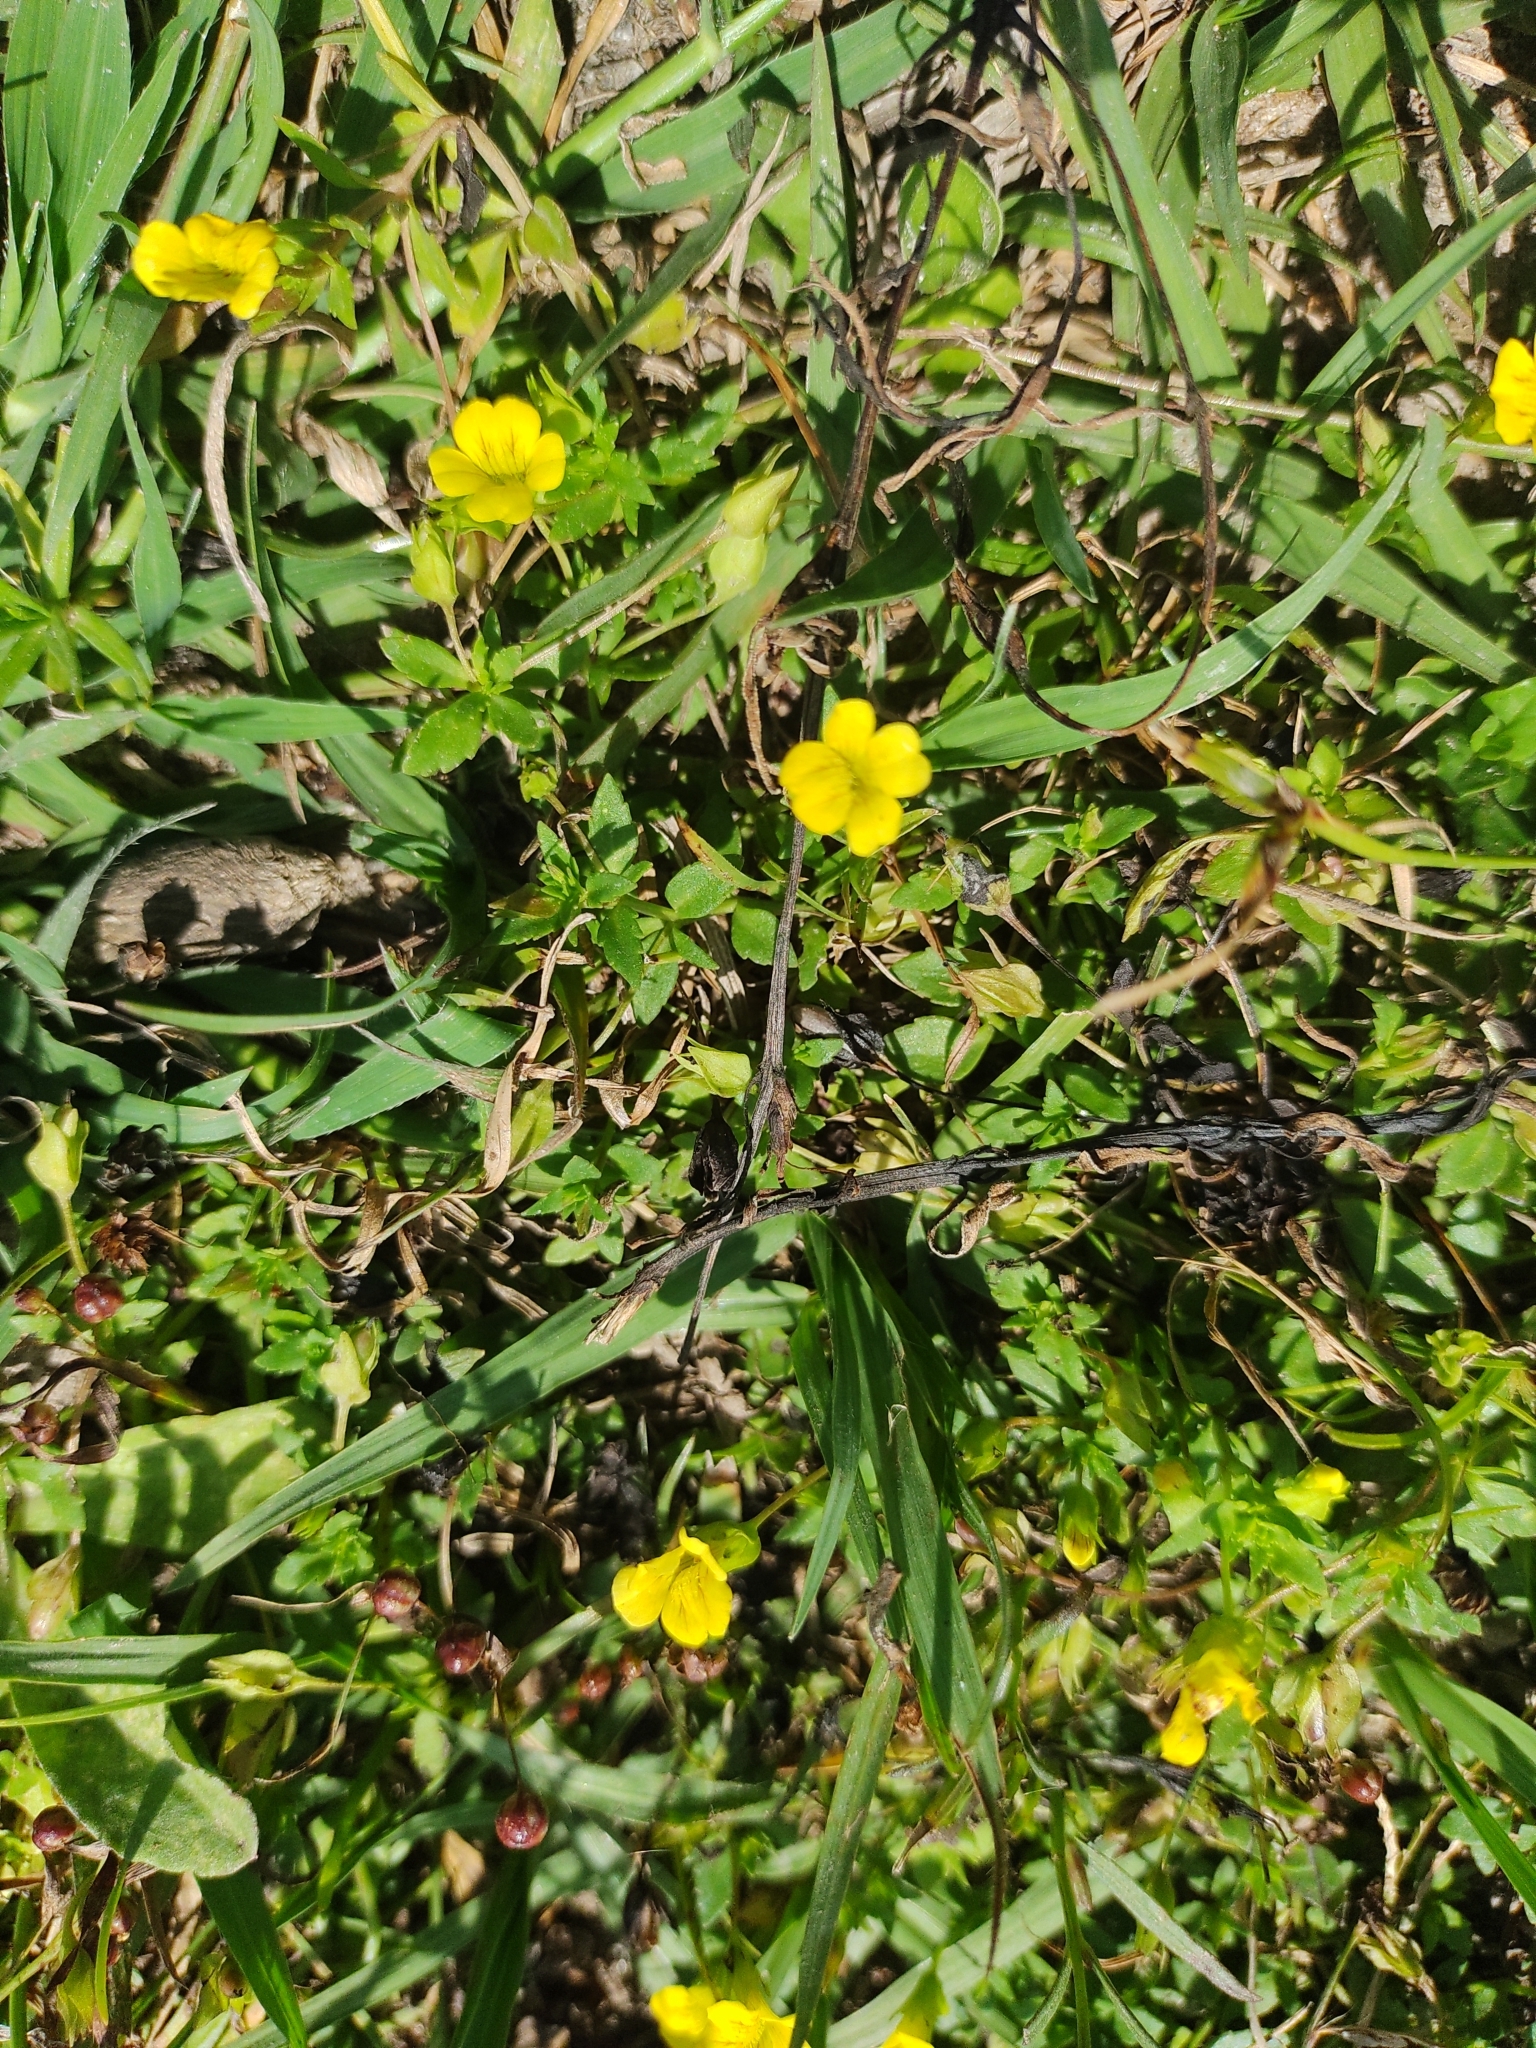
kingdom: Plantae
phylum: Tracheophyta
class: Magnoliopsida
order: Lamiales
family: Plantaginaceae
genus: Mecardonia
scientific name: Mecardonia procumbens
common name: Baby jump-up
